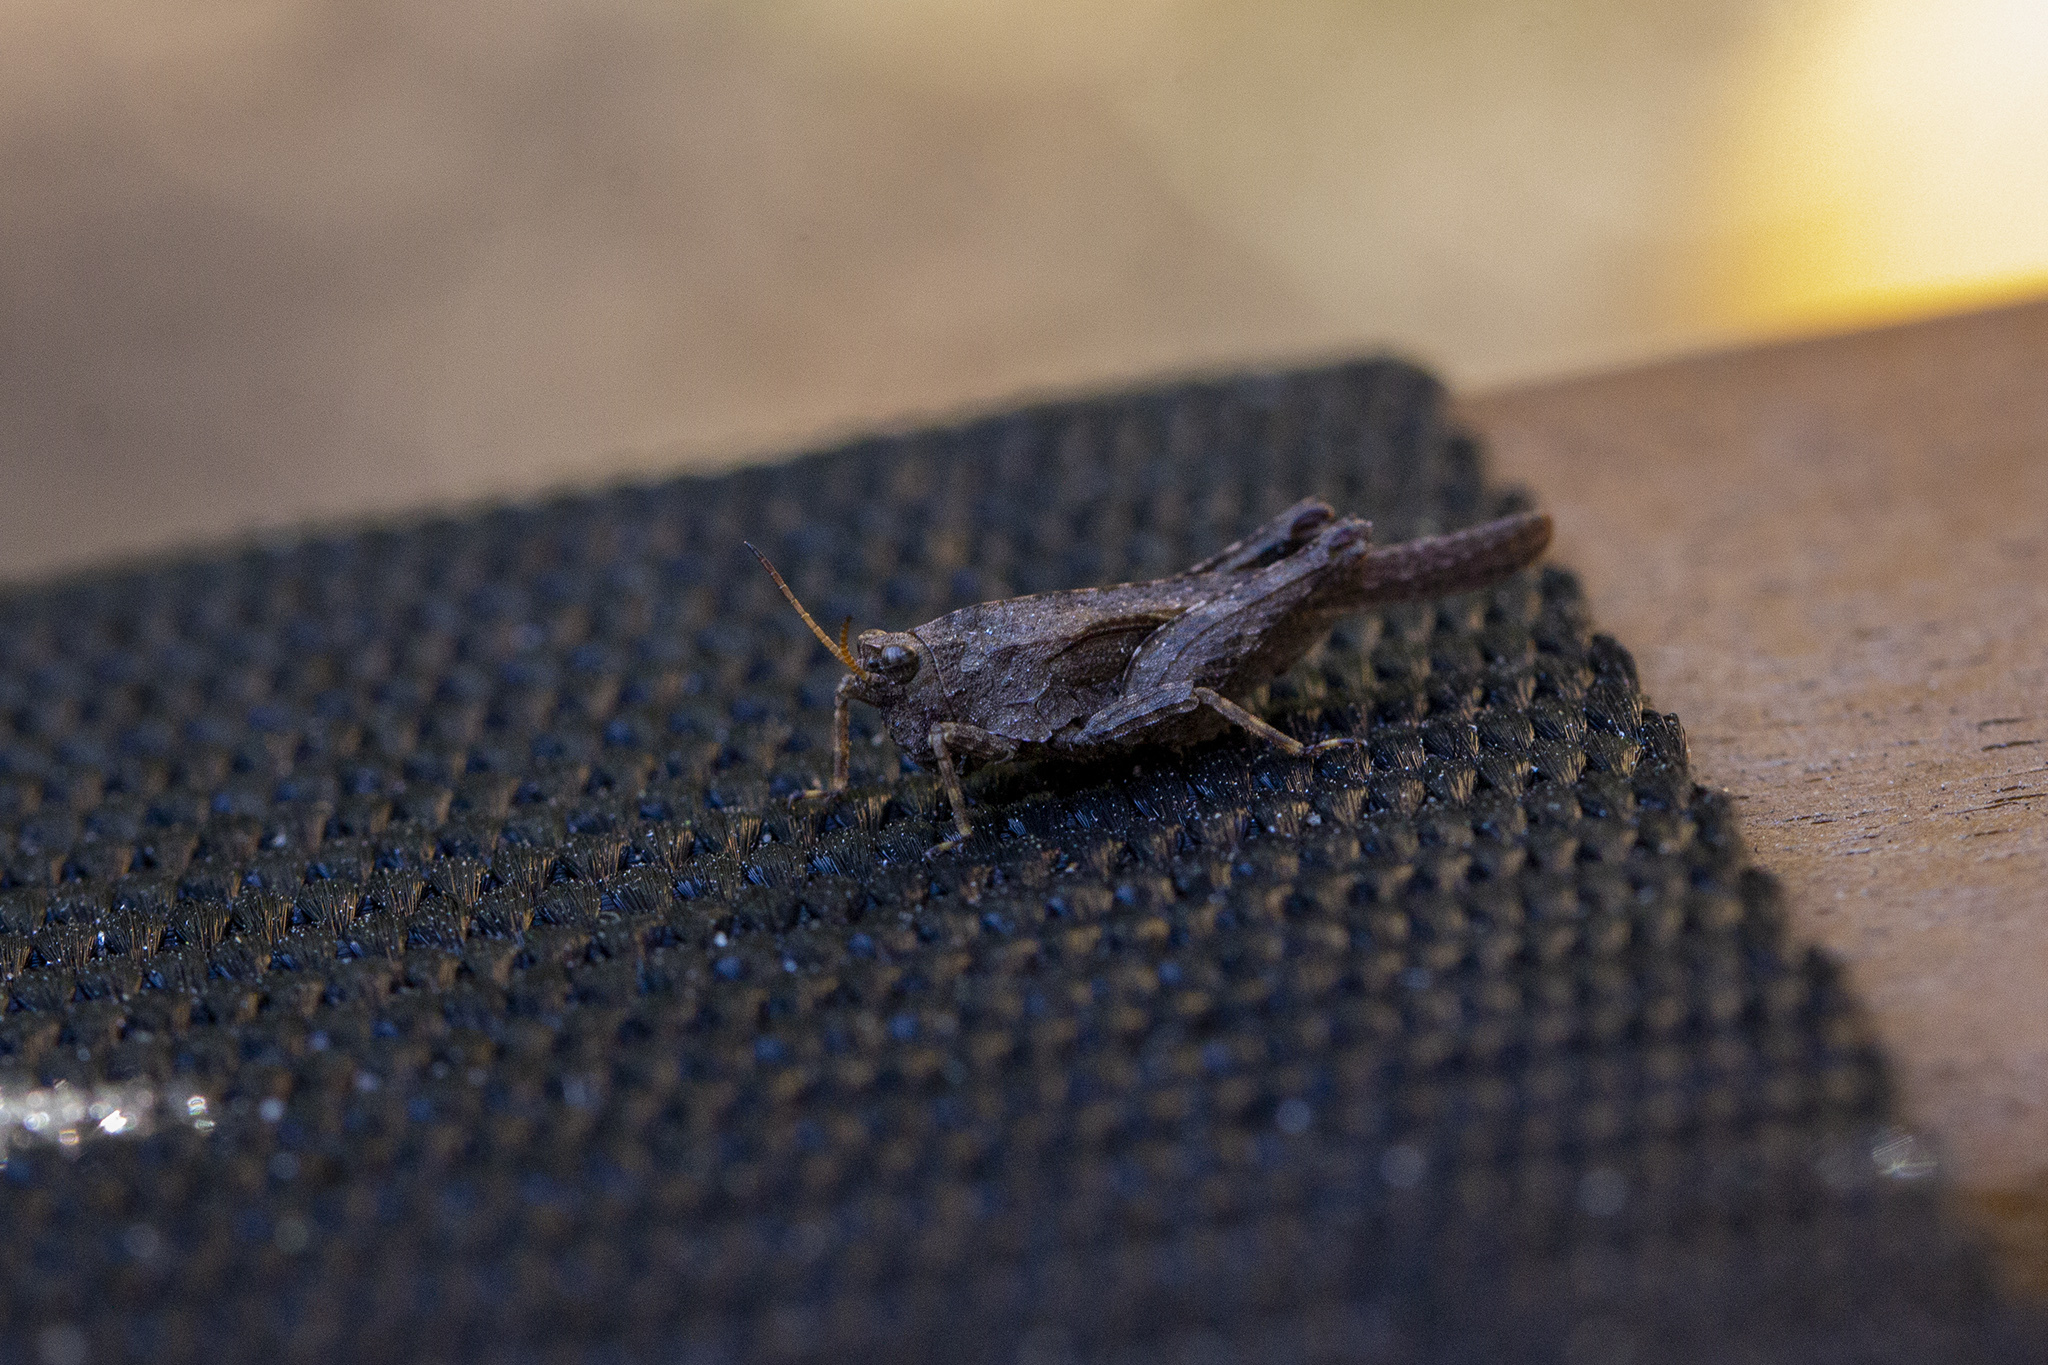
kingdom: Animalia
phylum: Arthropoda
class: Insecta
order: Orthoptera
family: Tetrigidae
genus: Tetrix
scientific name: Tetrix subulata
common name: Slender ground-hopper
